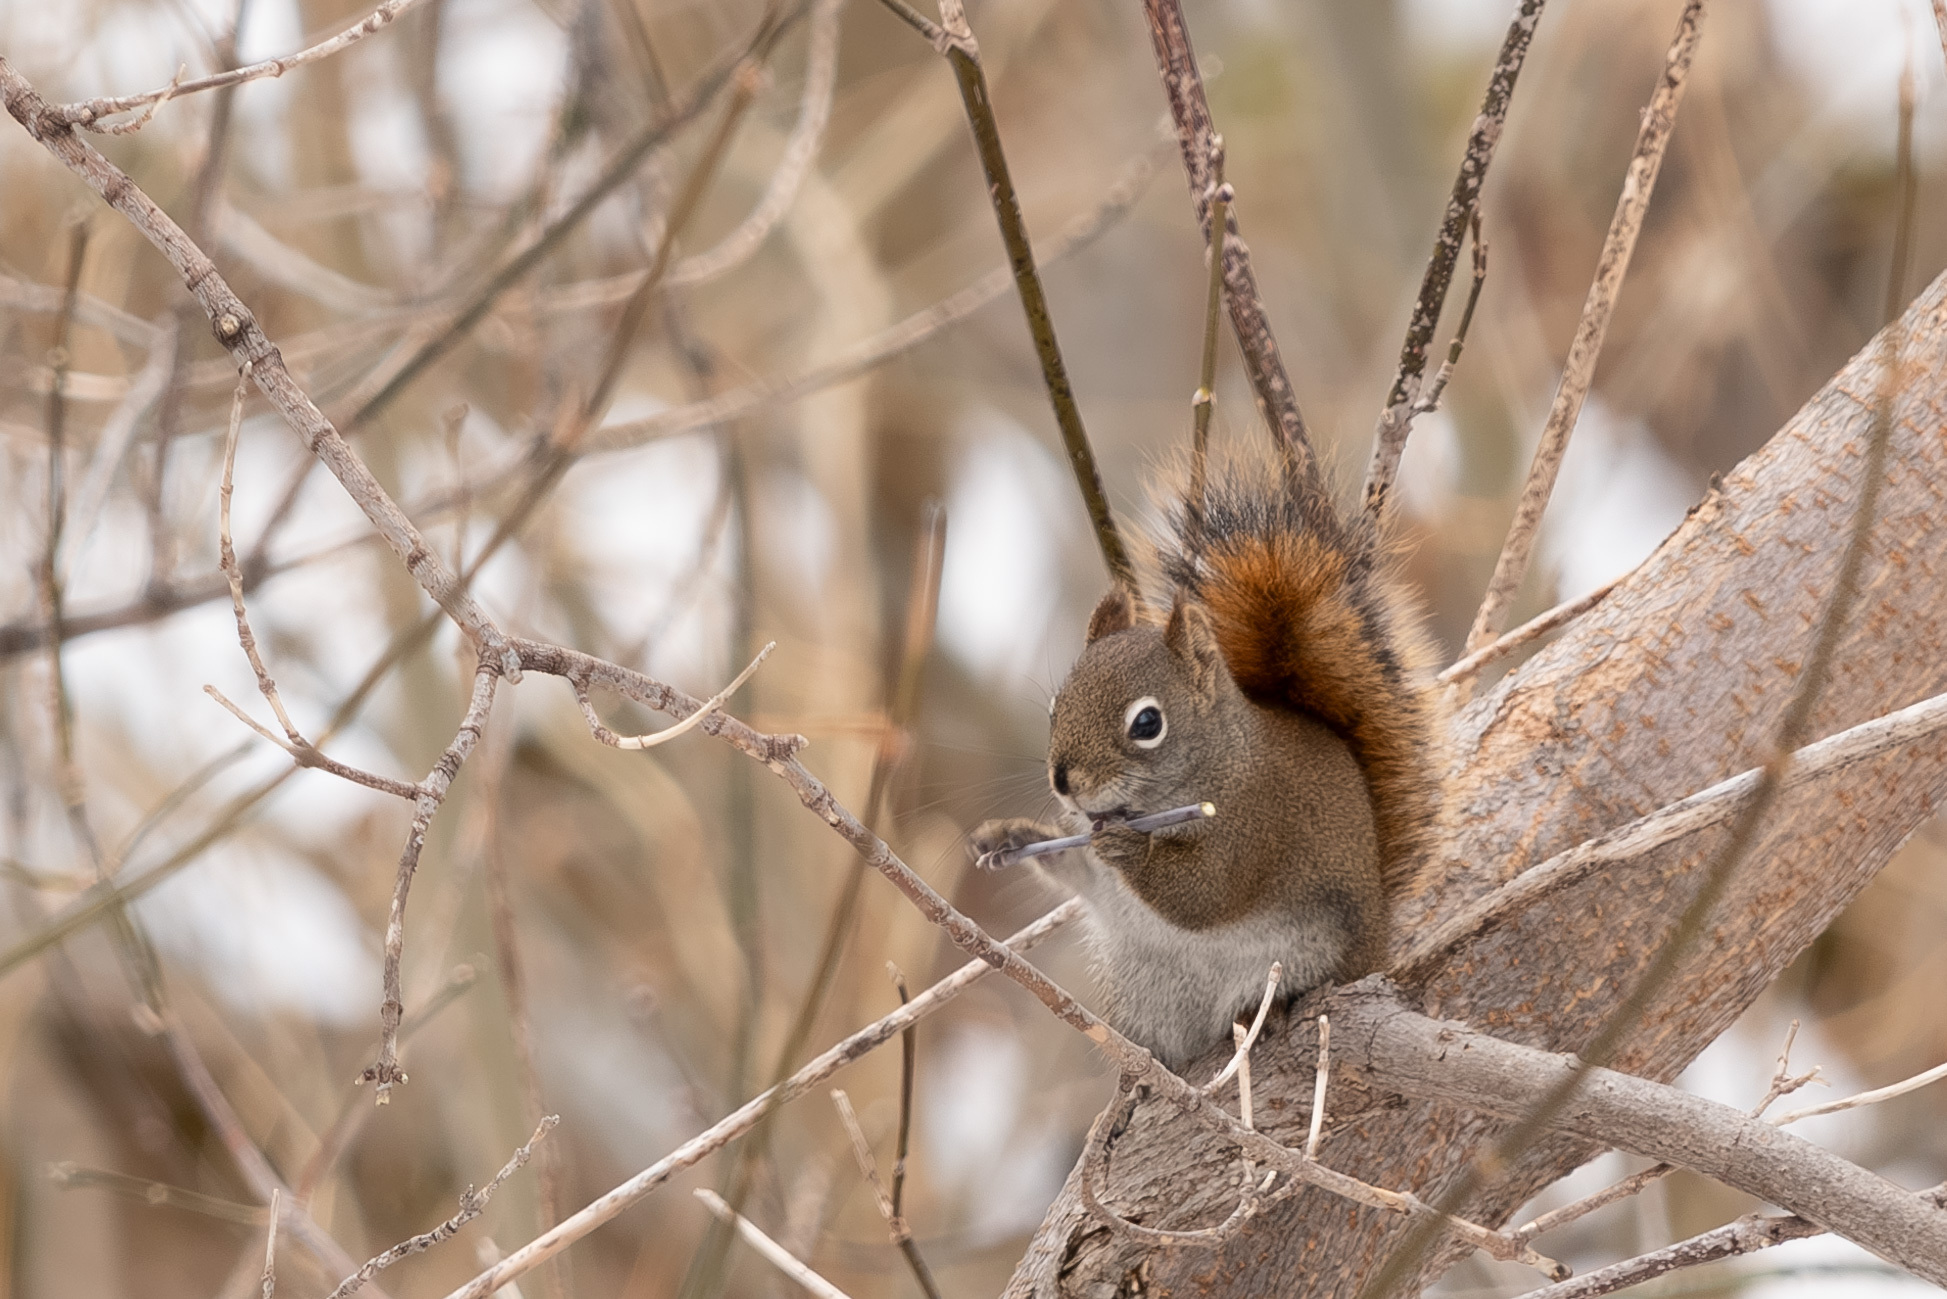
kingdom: Animalia
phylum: Chordata
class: Mammalia
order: Rodentia
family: Sciuridae
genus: Tamiasciurus
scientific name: Tamiasciurus hudsonicus
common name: Red squirrel
